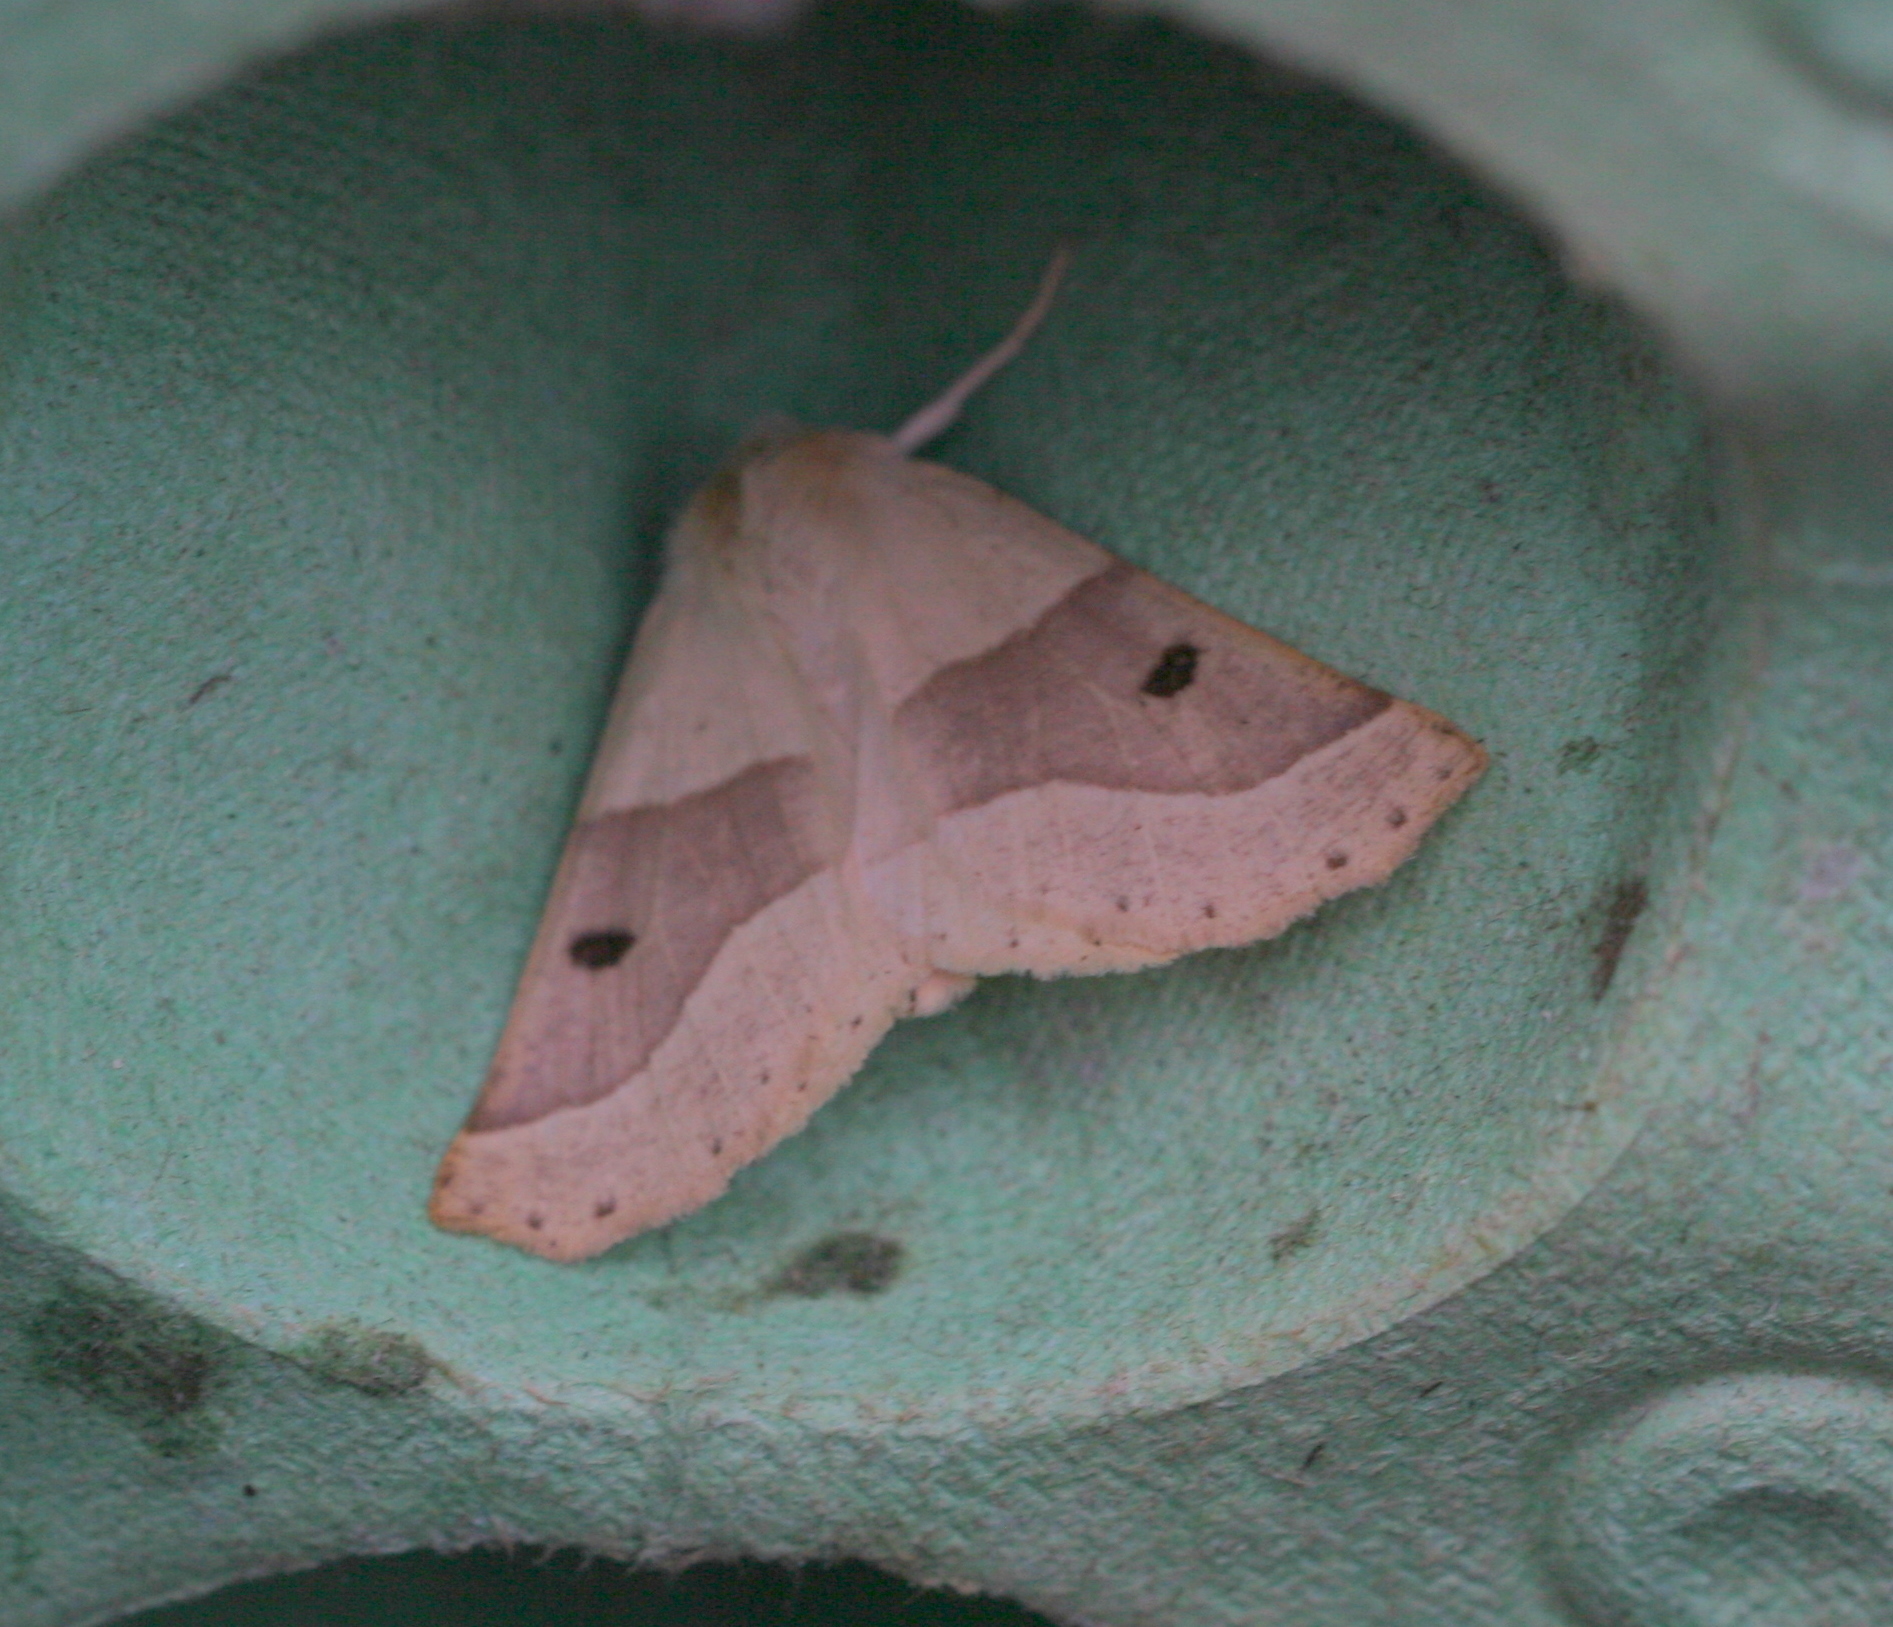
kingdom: Animalia
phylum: Arthropoda
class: Insecta
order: Lepidoptera
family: Geometridae
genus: Crocallis
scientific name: Crocallis elinguaria
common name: Scalloped oak
